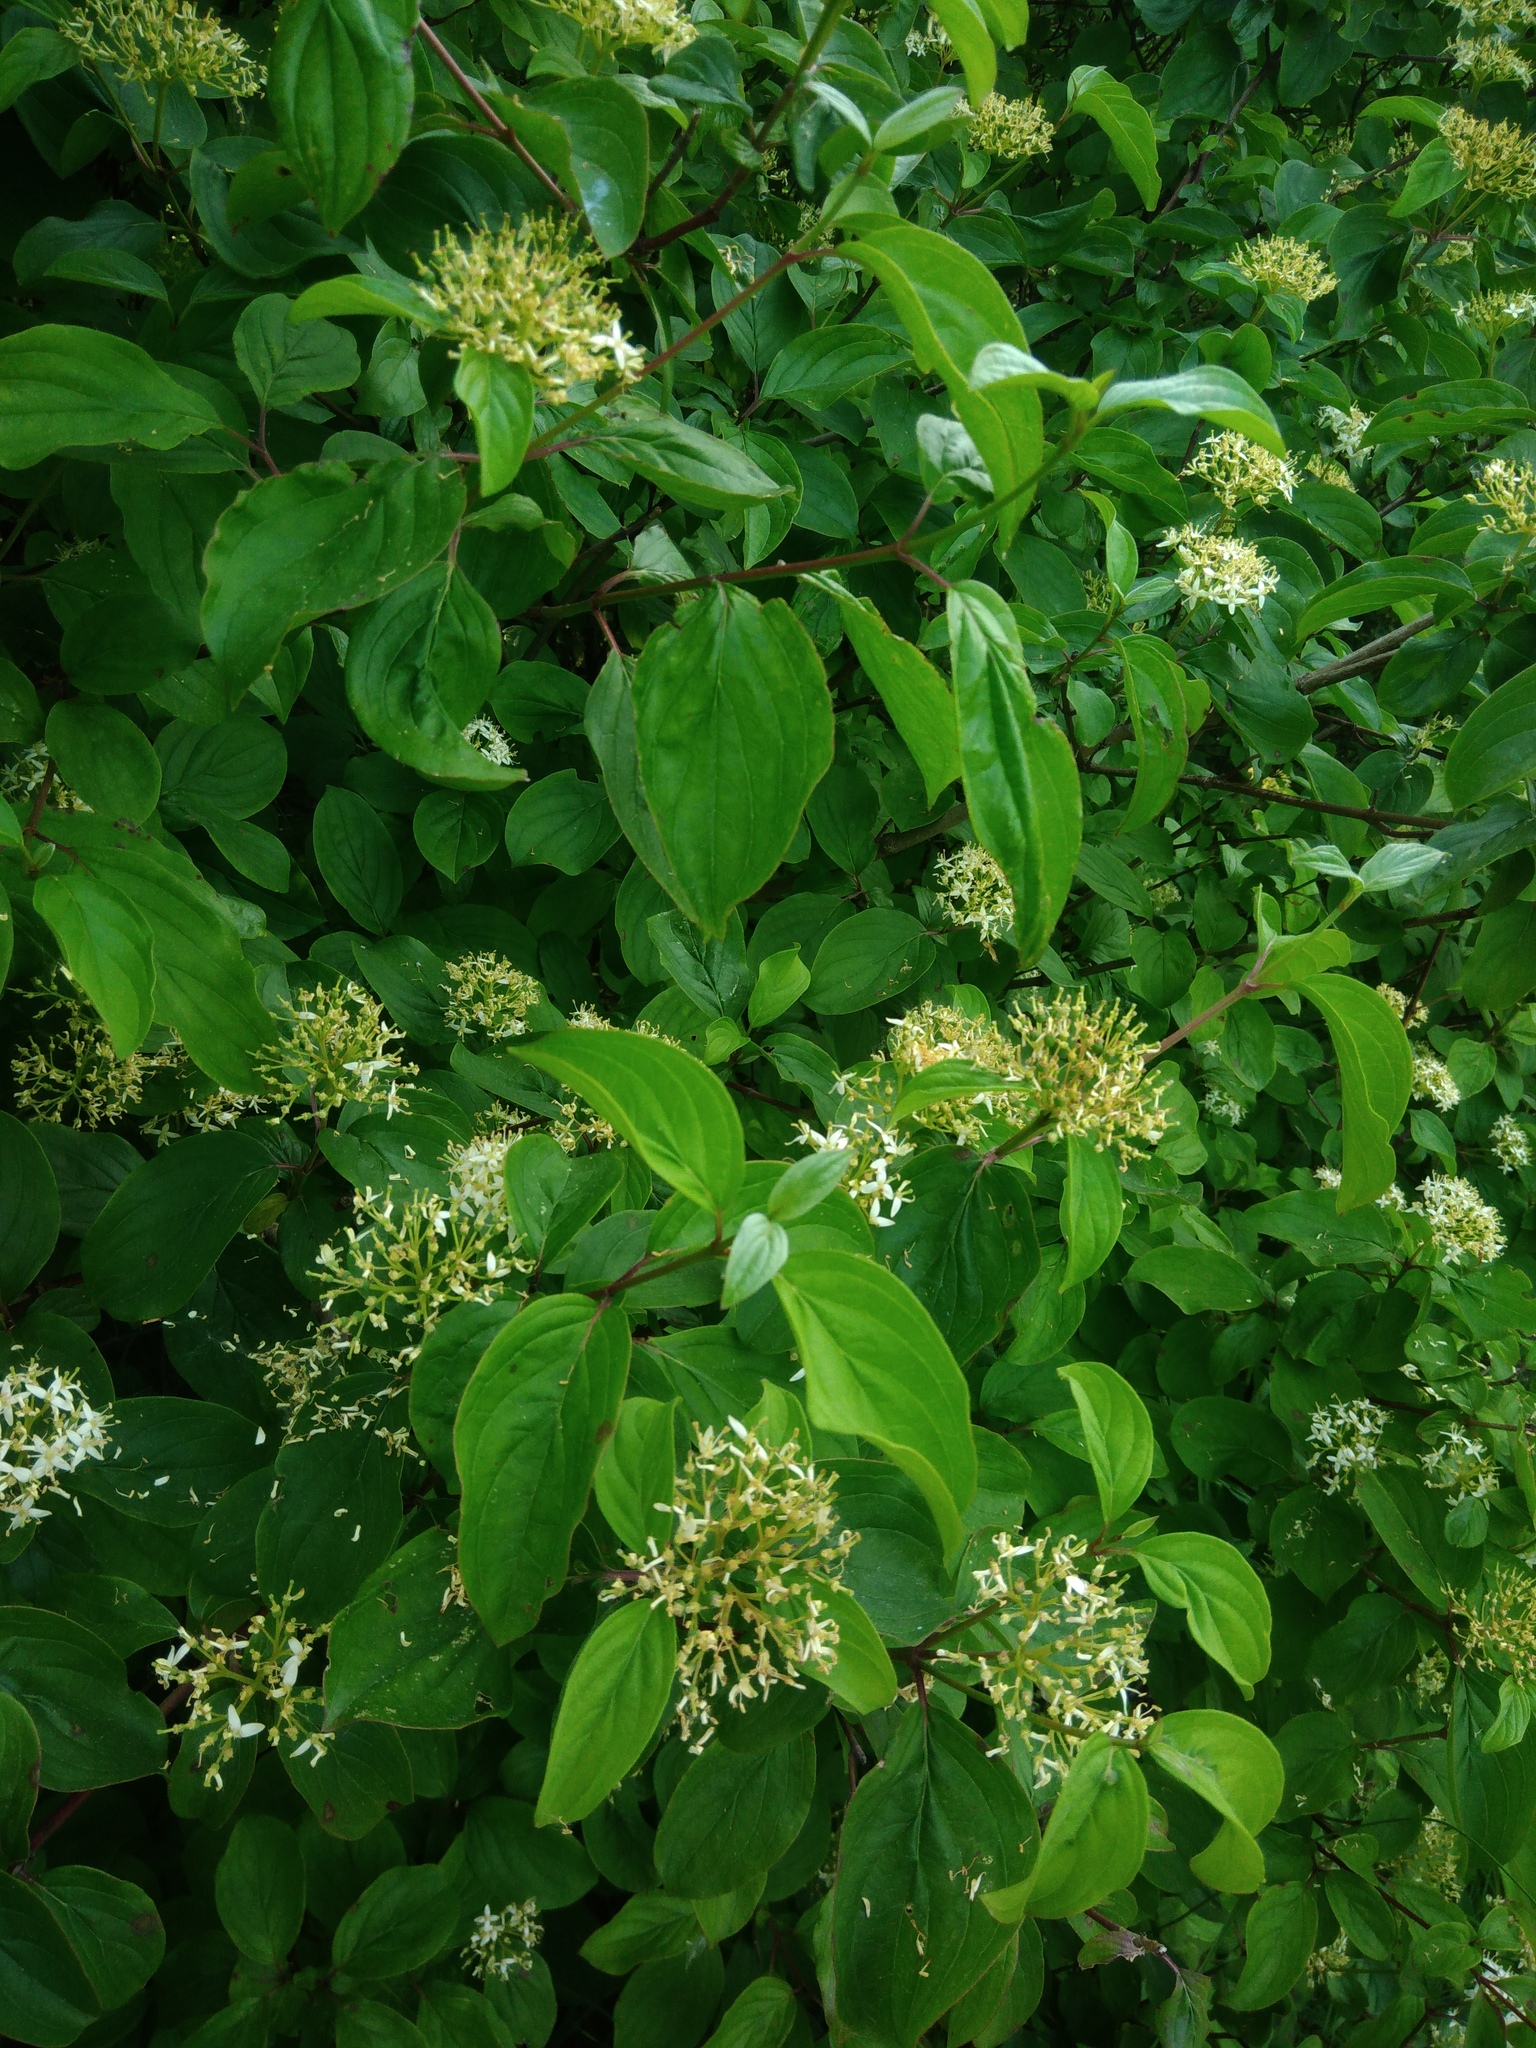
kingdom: Plantae
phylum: Tracheophyta
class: Magnoliopsida
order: Cornales
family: Cornaceae
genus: Cornus
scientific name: Cornus sanguinea
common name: Dogwood
